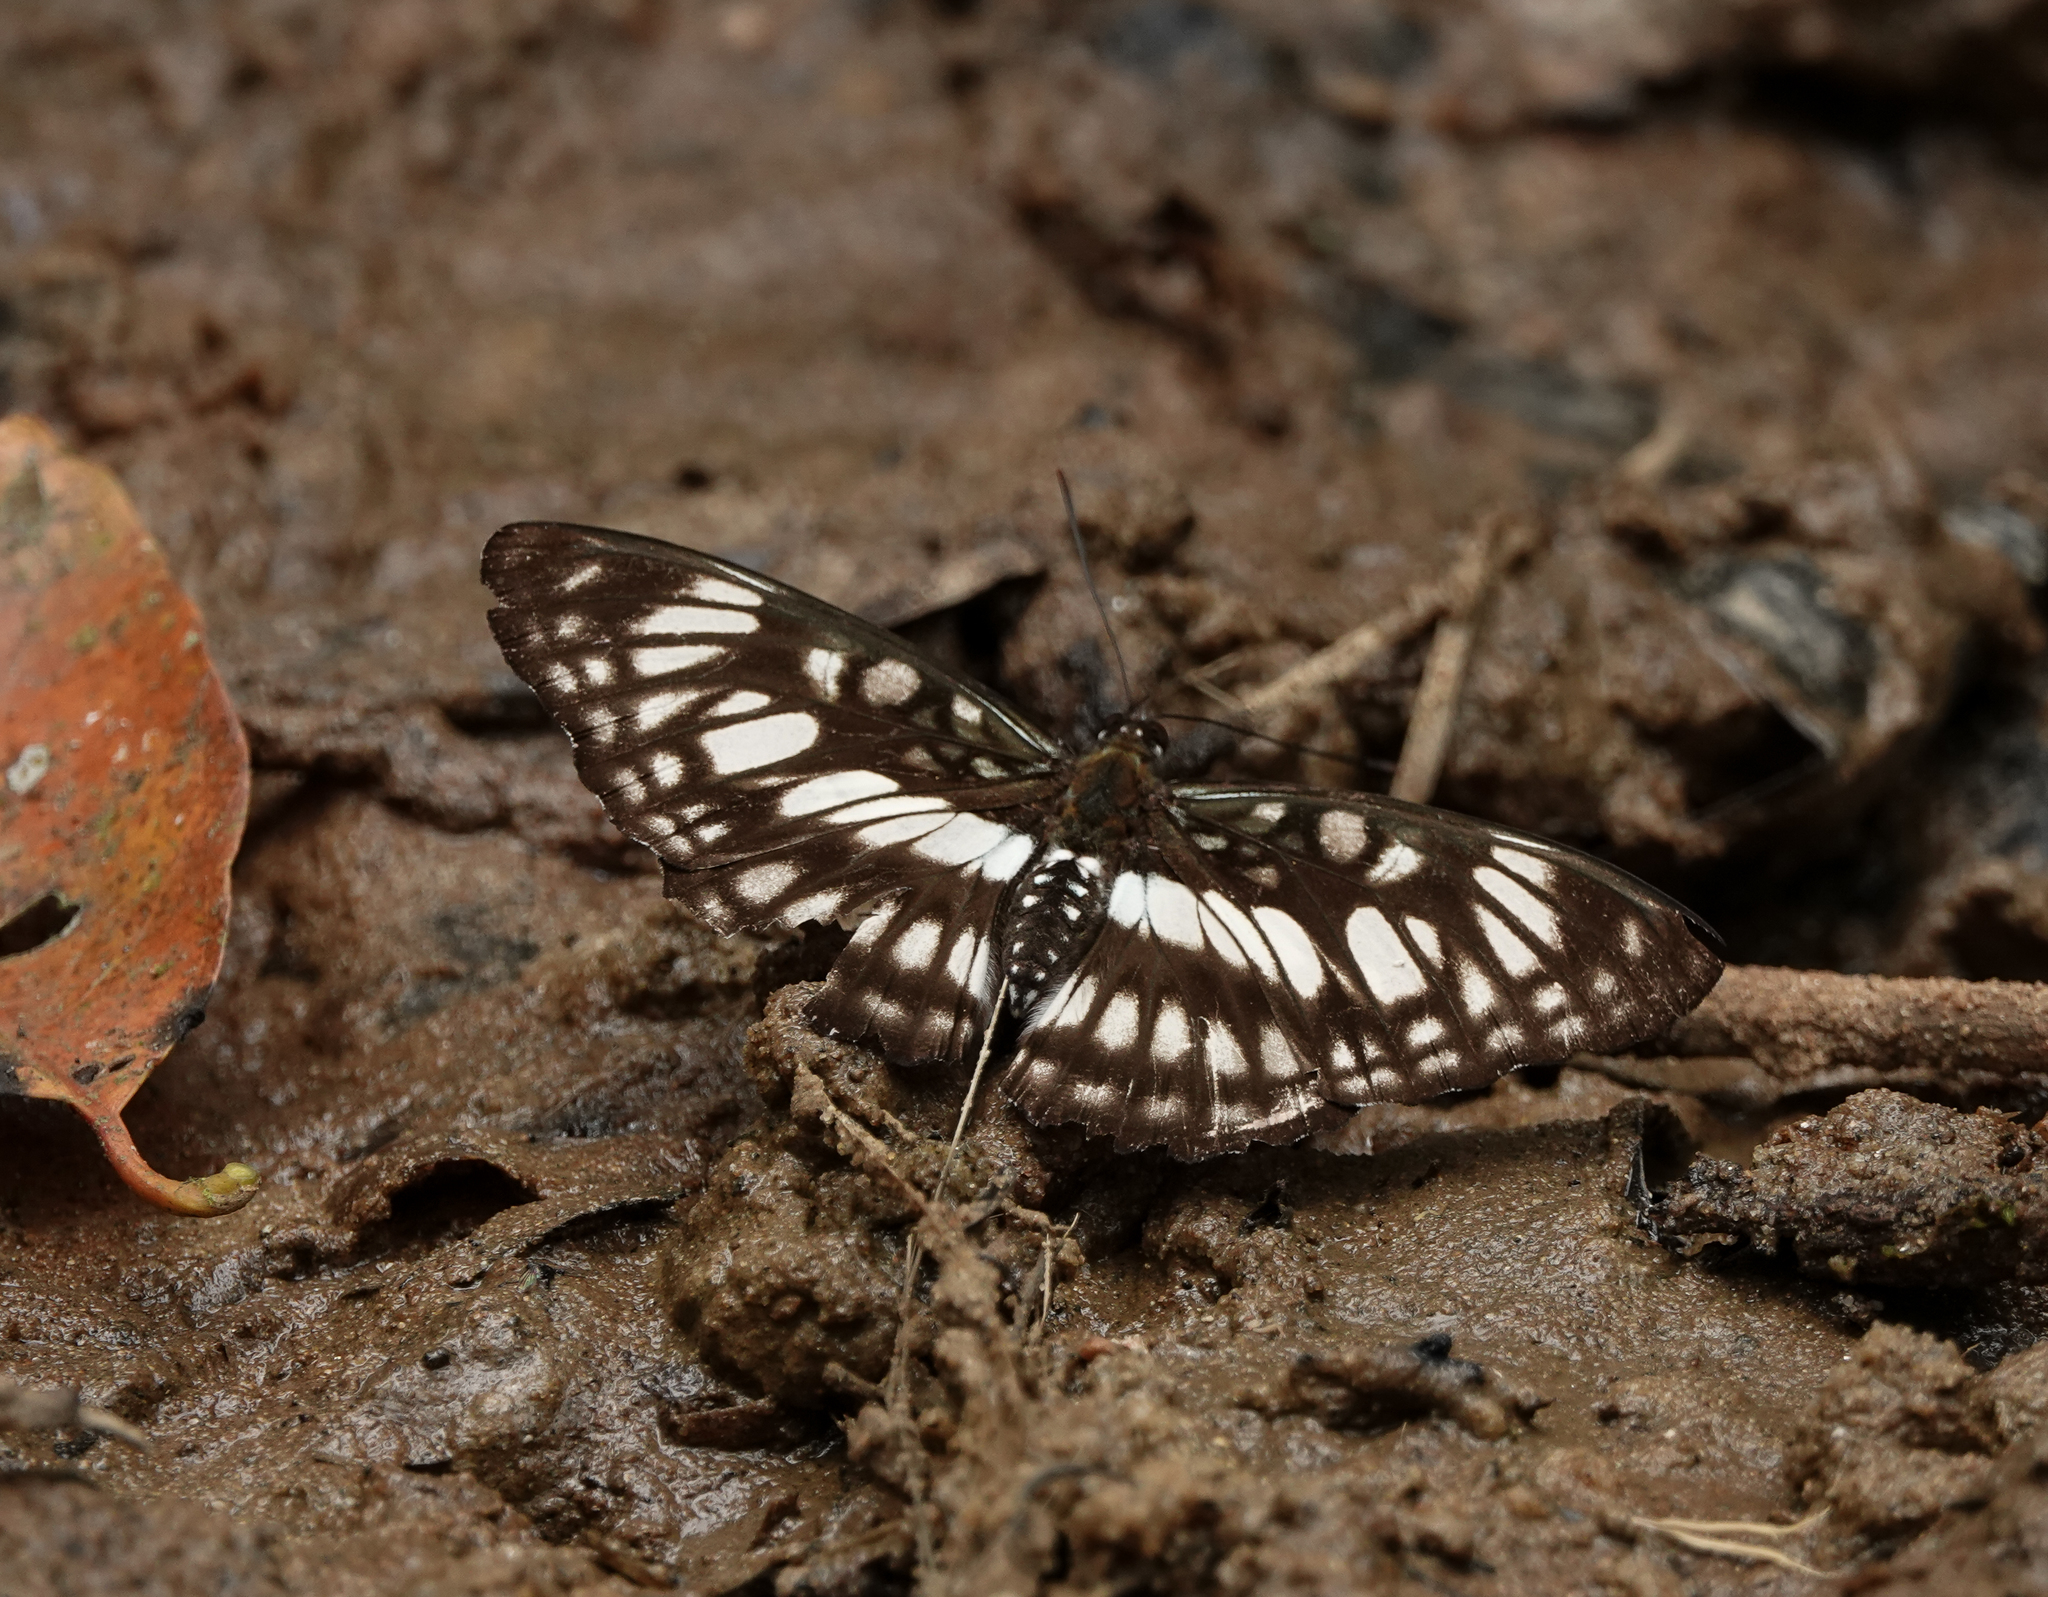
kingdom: Animalia
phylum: Arthropoda
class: Insecta
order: Lepidoptera
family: Nymphalidae
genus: Parathyma
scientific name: Parathyma ranga
